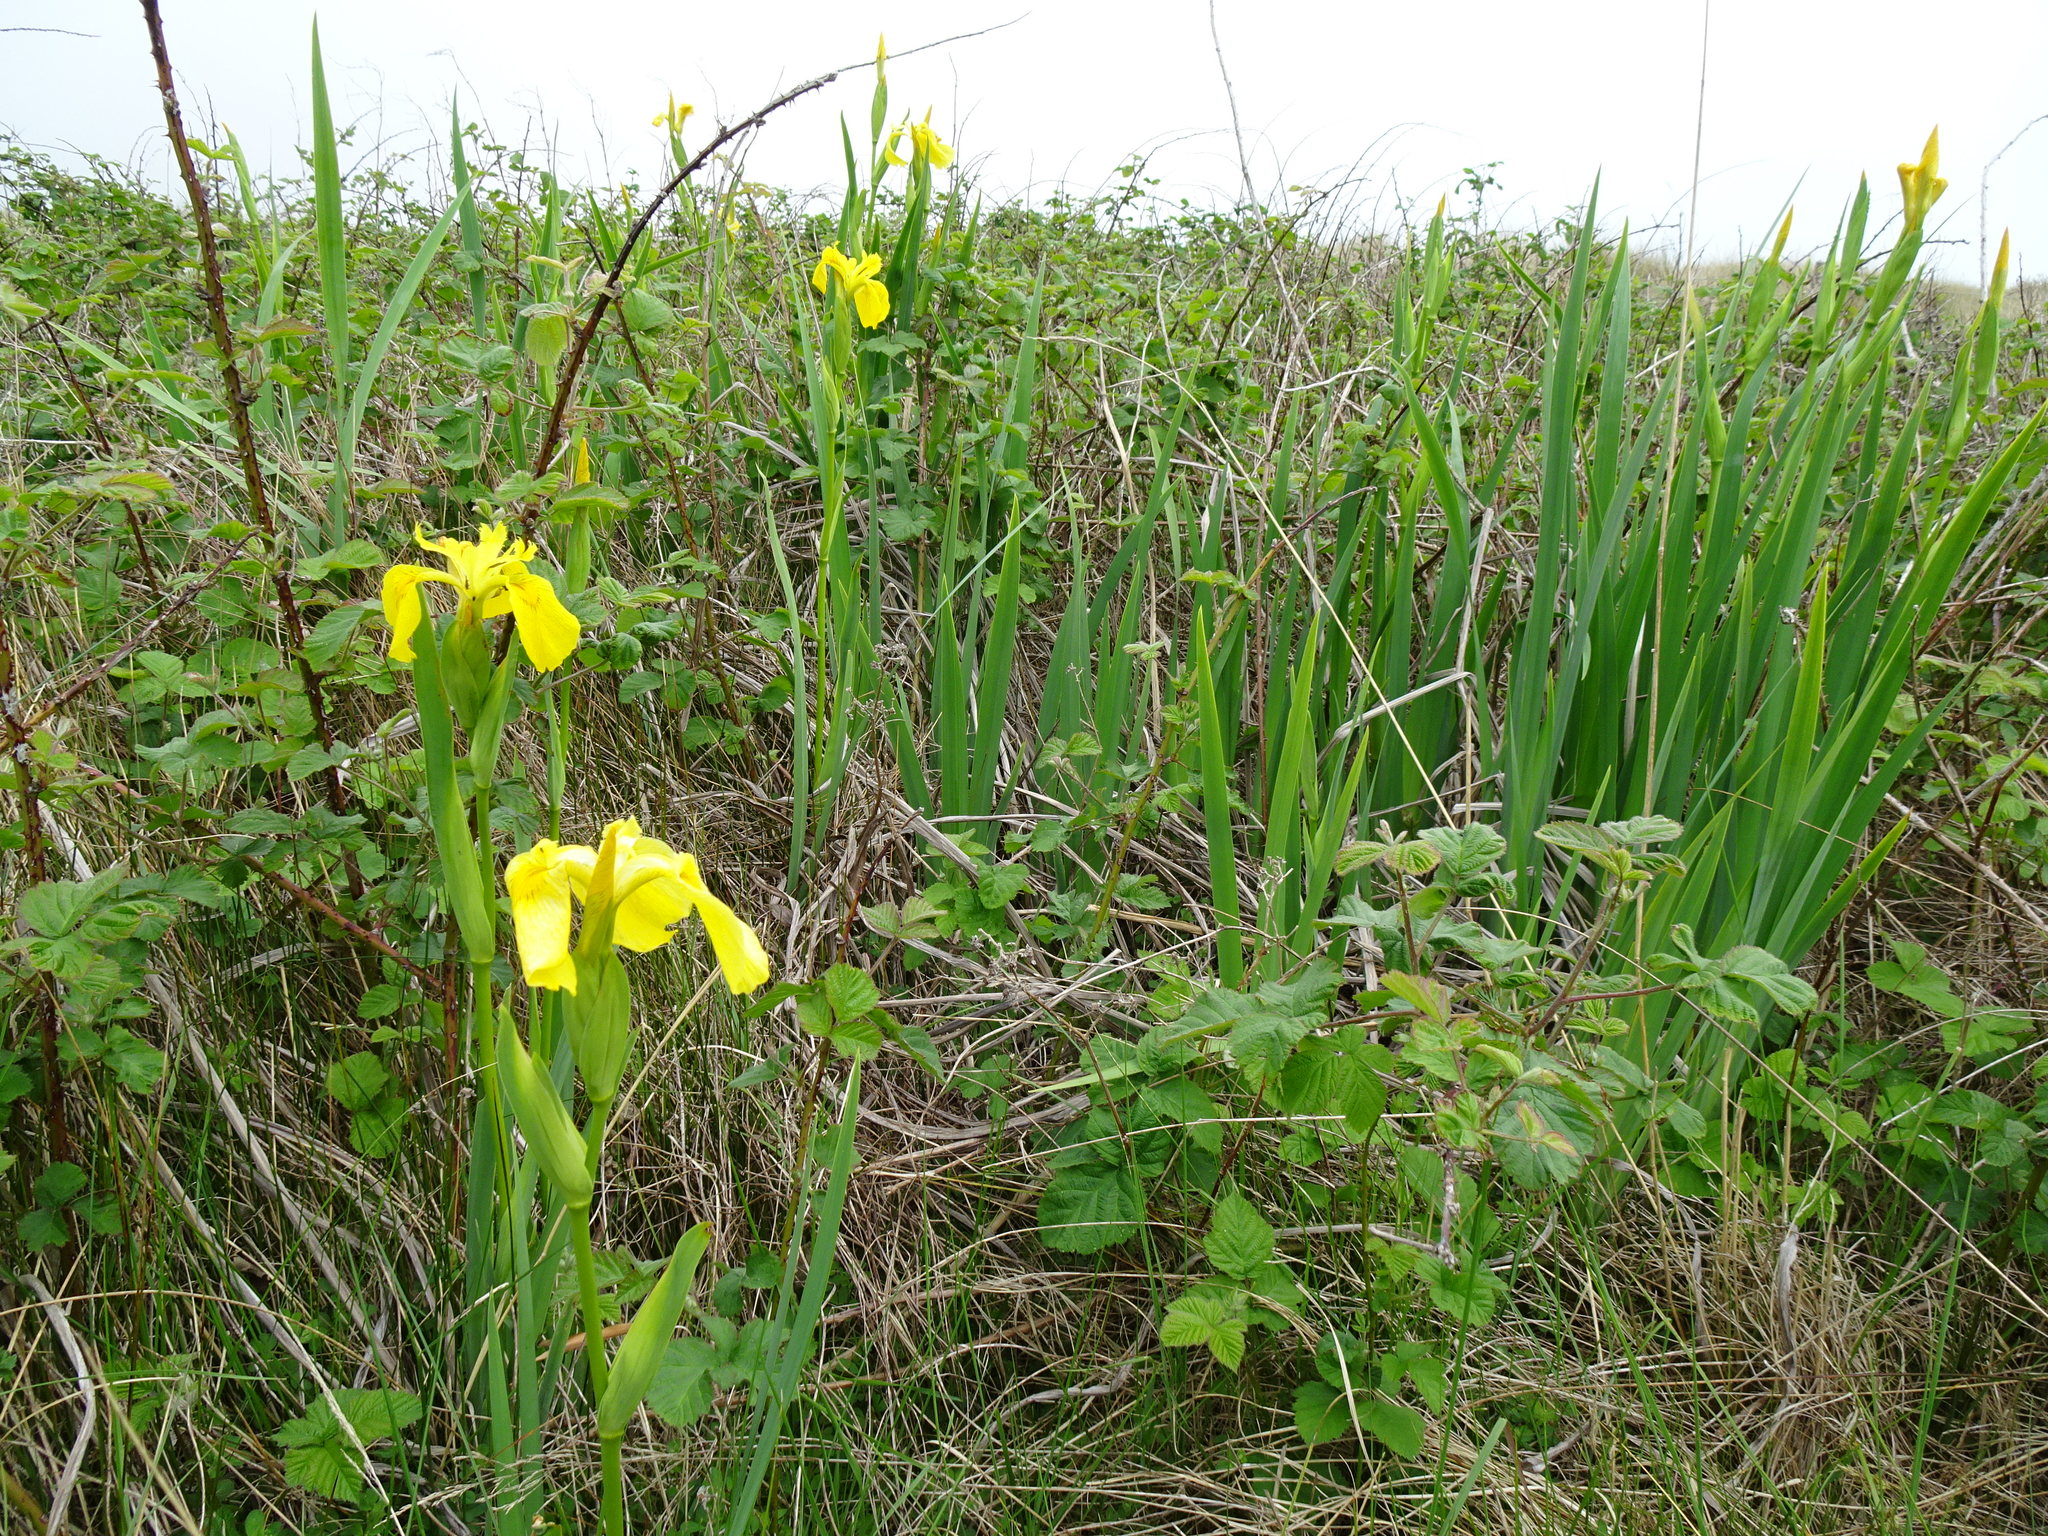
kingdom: Plantae
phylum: Tracheophyta
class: Liliopsida
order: Asparagales
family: Iridaceae
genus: Iris
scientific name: Iris pseudacorus
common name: Yellow flag
